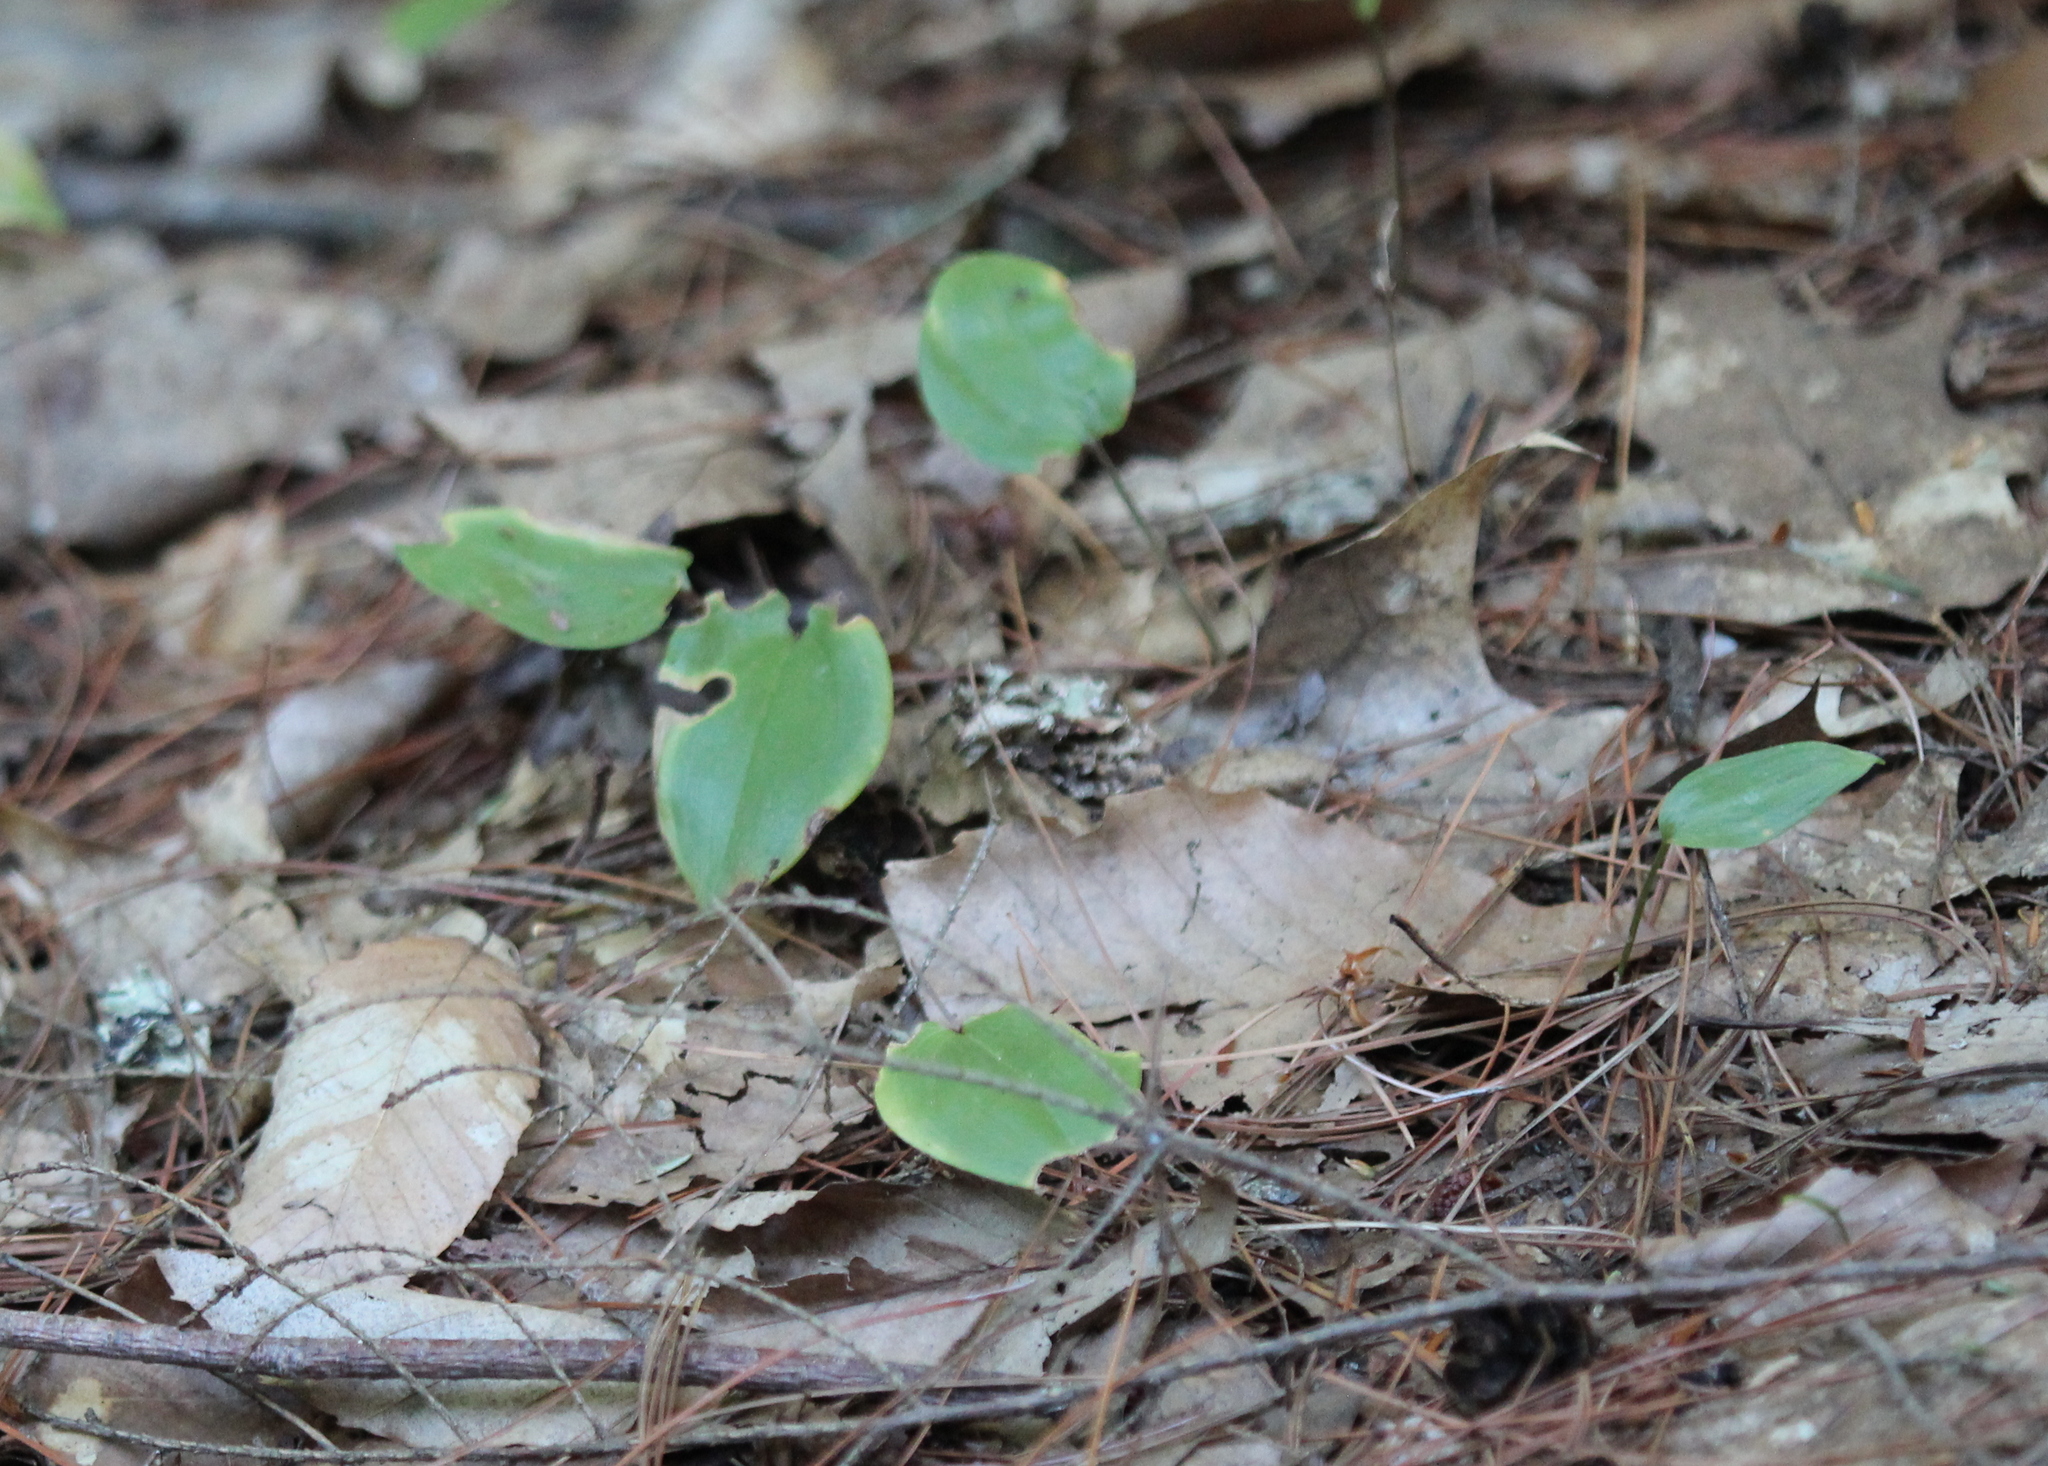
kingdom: Plantae
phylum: Tracheophyta
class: Liliopsida
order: Asparagales
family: Asparagaceae
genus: Maianthemum
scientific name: Maianthemum canadense
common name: False lily-of-the-valley
